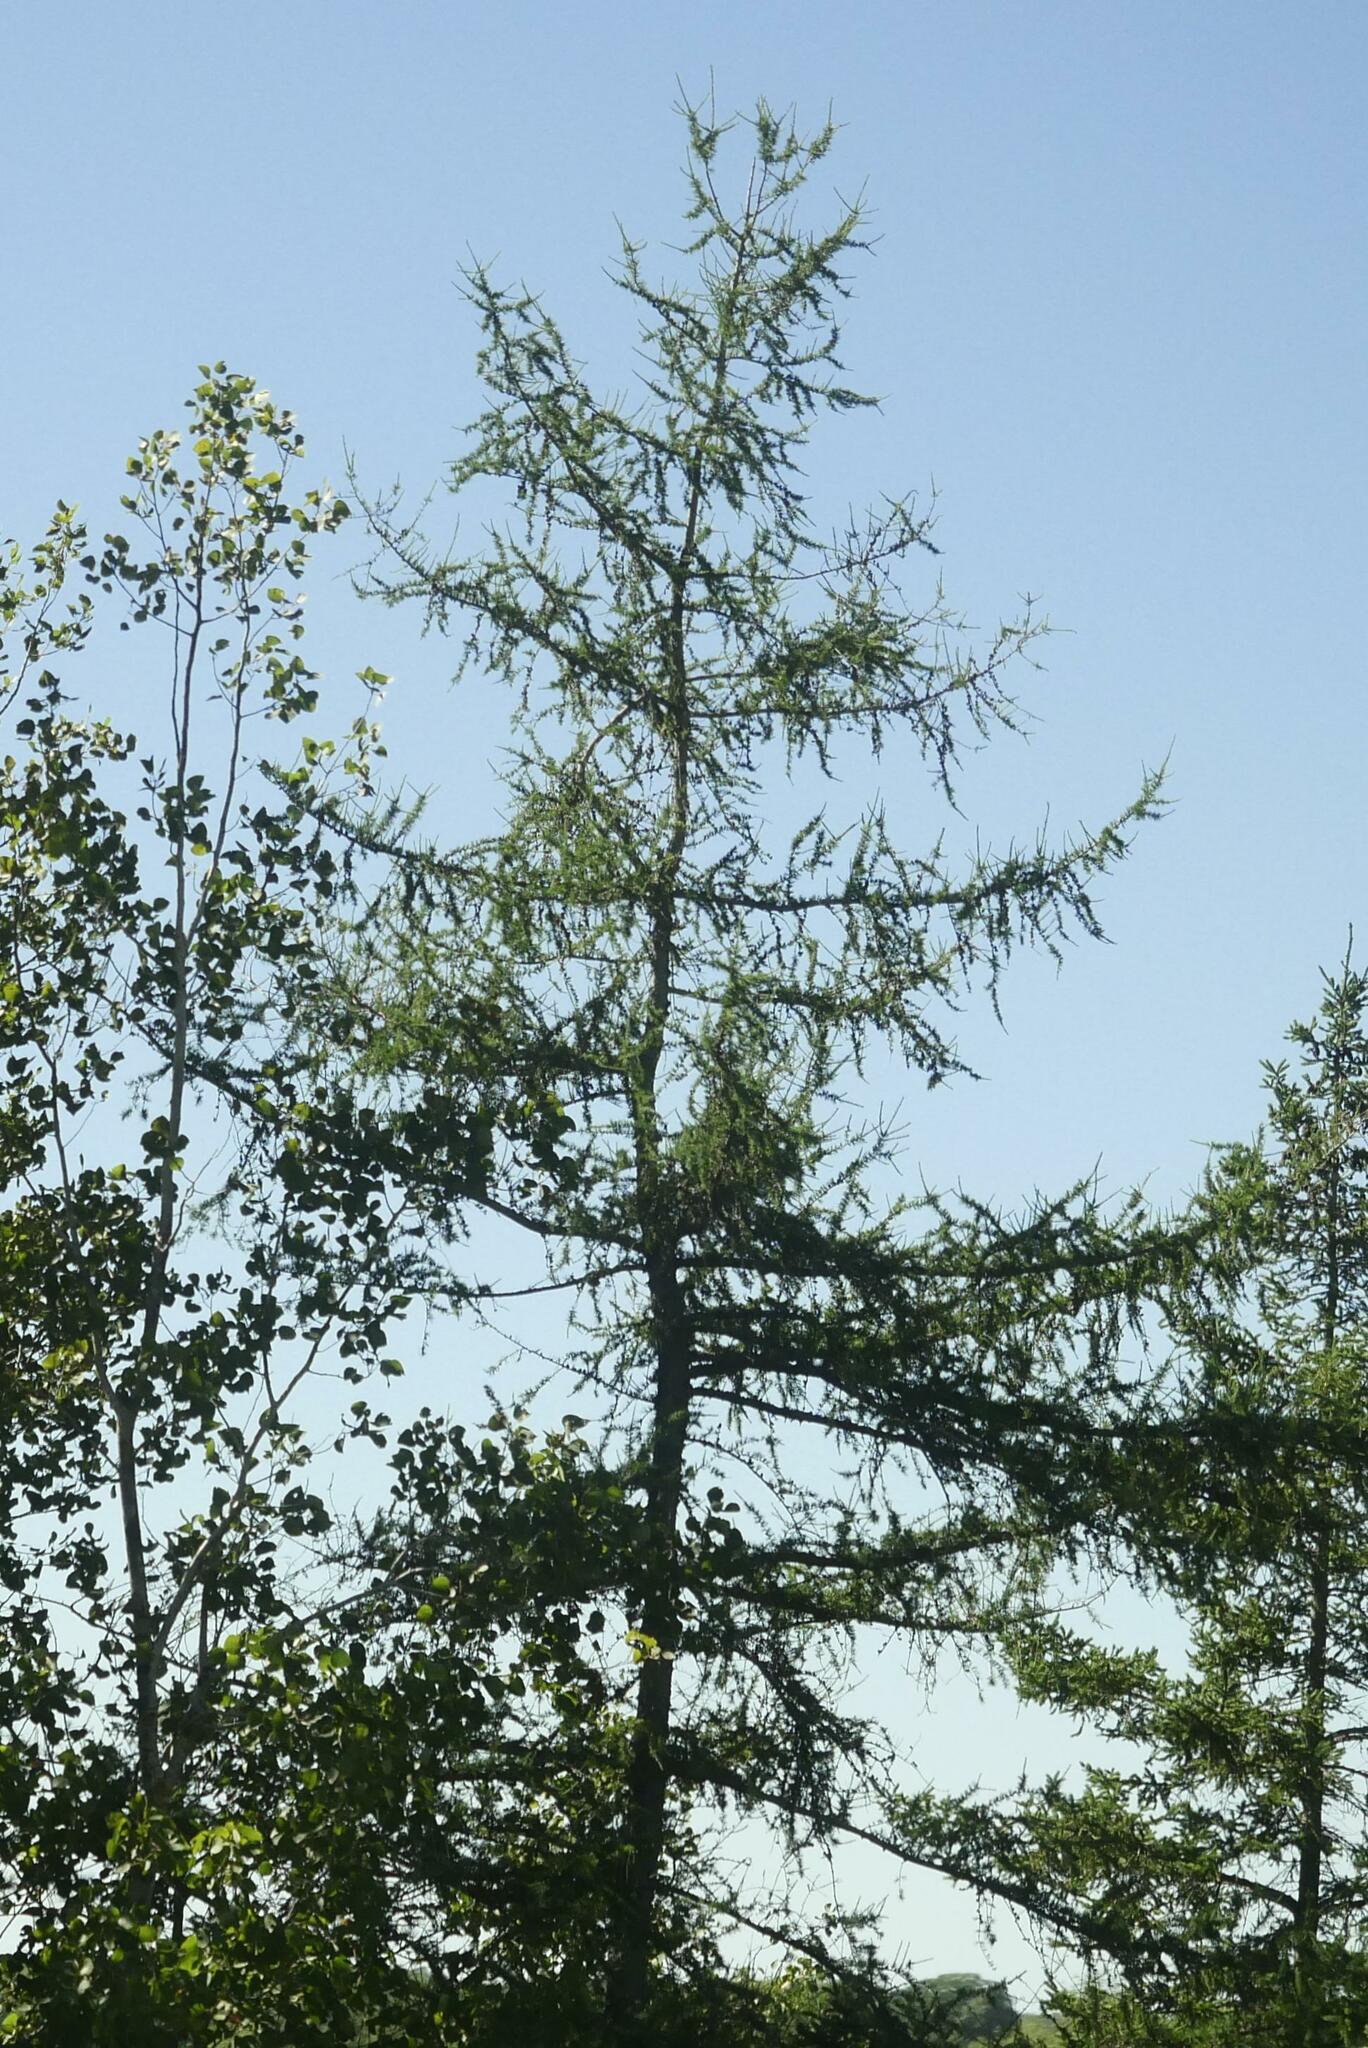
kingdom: Plantae
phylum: Tracheophyta
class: Pinopsida
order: Pinales
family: Pinaceae
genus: Larix
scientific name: Larix laricina
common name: American larch
